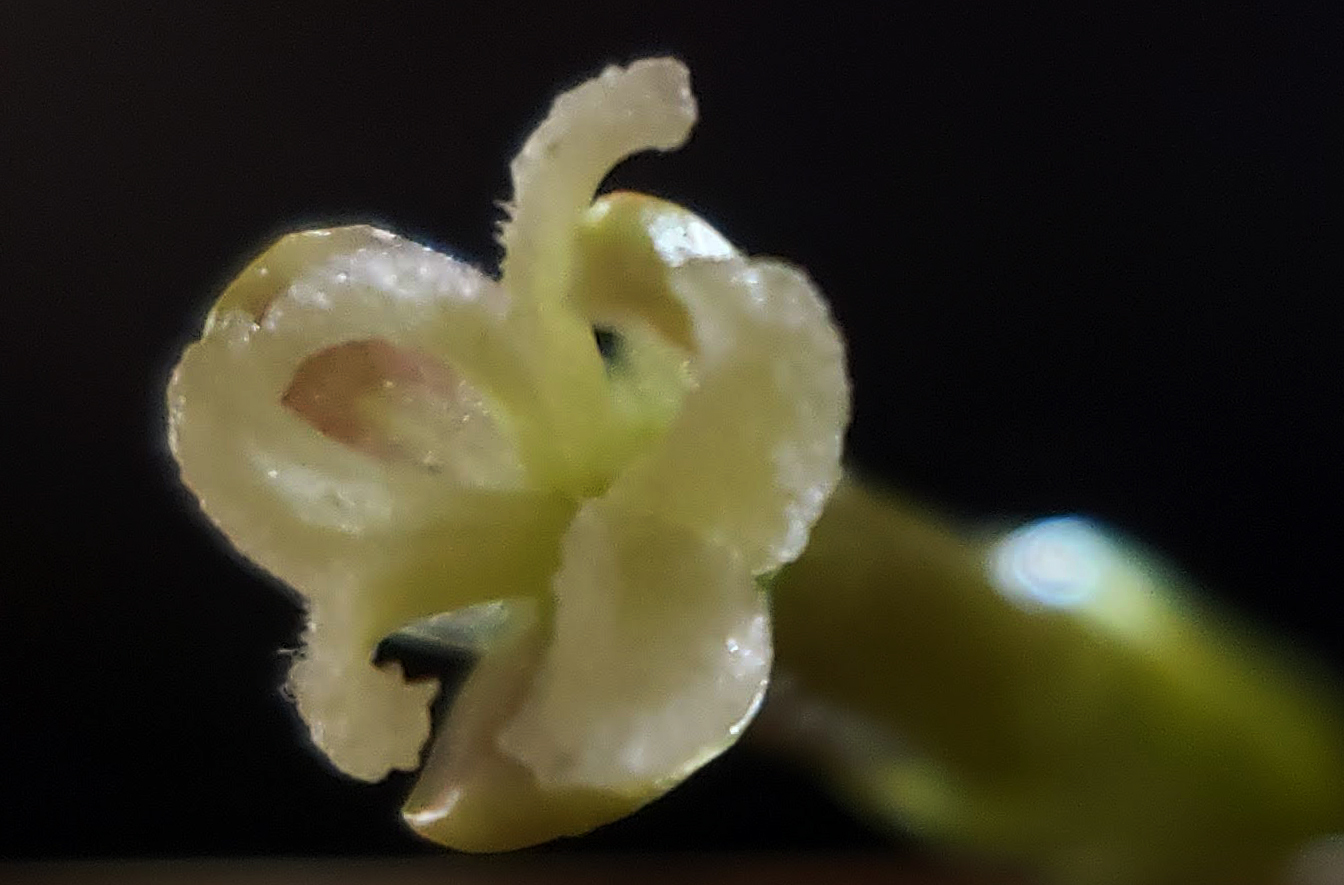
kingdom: Plantae
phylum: Tracheophyta
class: Liliopsida
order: Alismatales
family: Hydrocharitaceae
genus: Vallisneria
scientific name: Vallisneria americana
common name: American eelgrass
